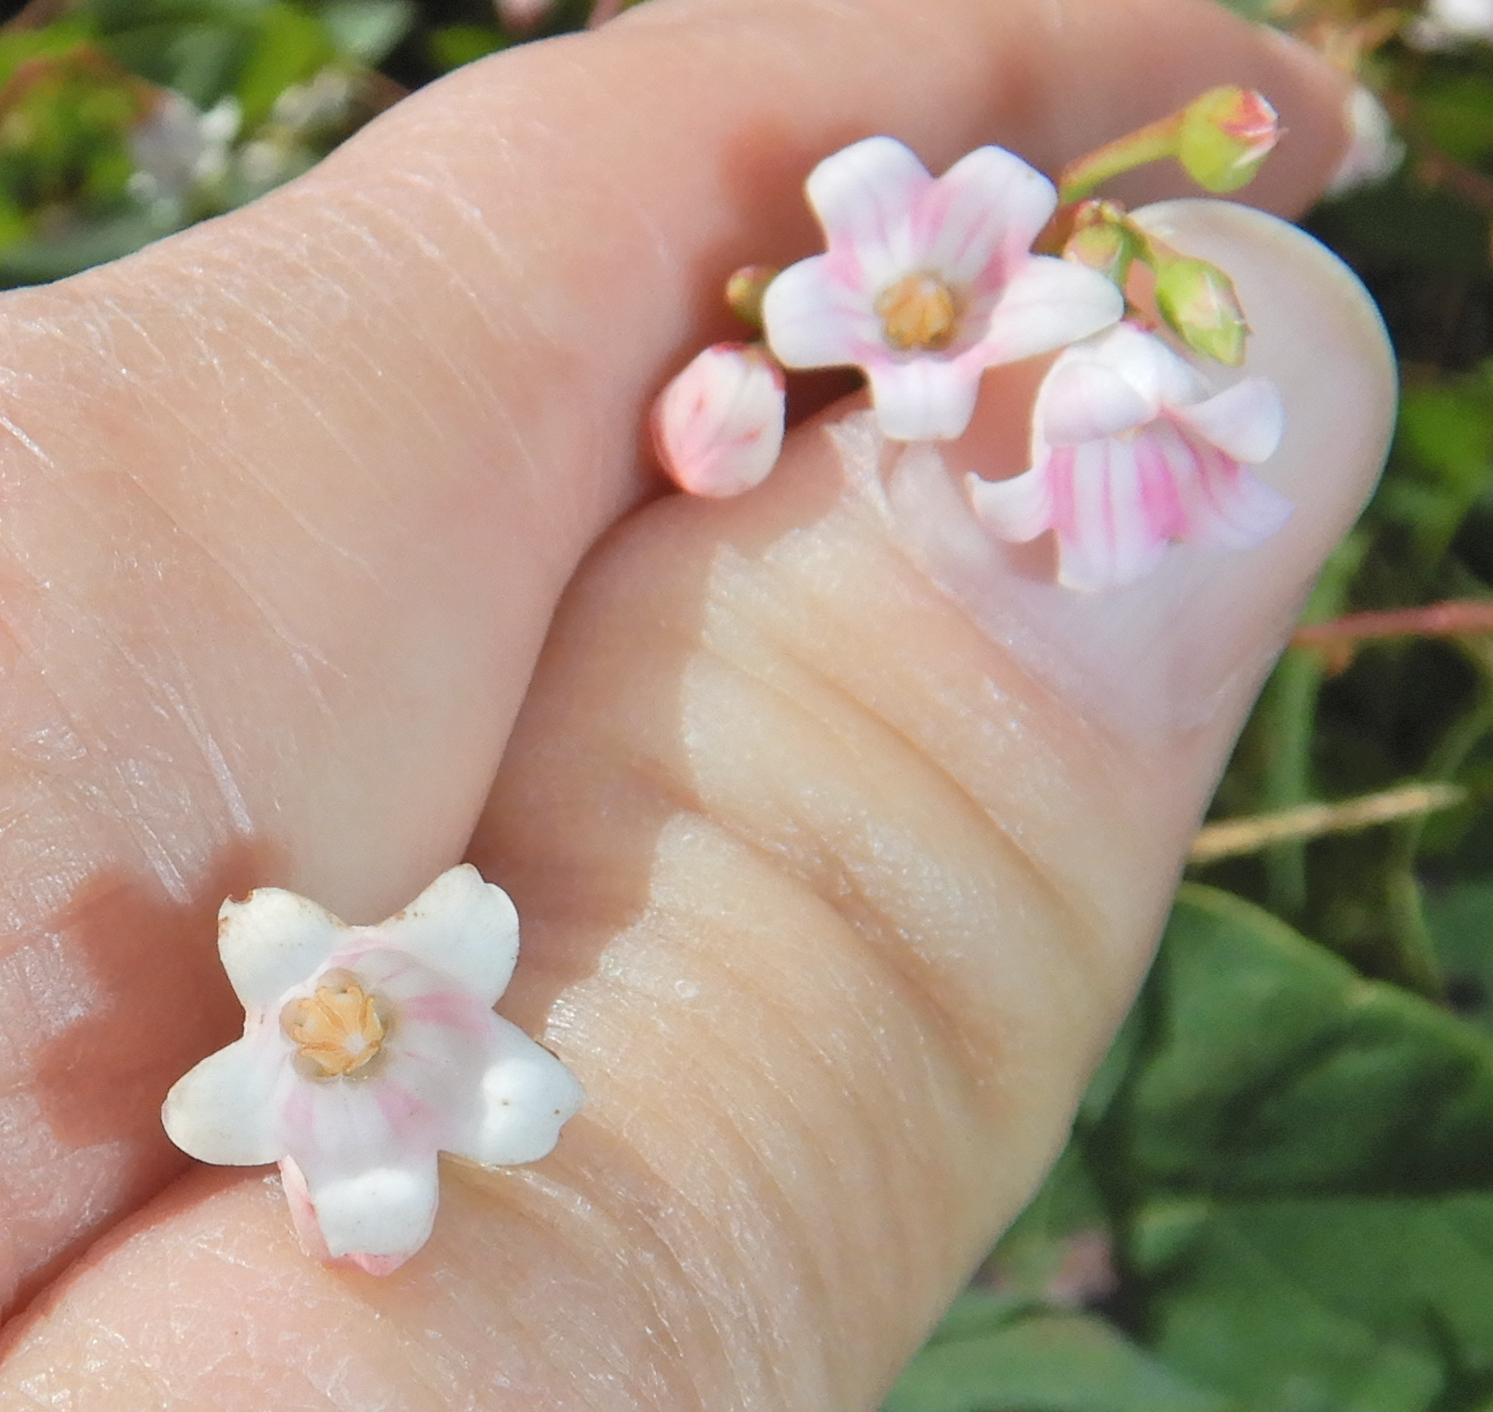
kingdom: Plantae
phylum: Tracheophyta
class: Magnoliopsida
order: Gentianales
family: Apocynaceae
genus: Apocynum
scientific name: Apocynum androsaemifolium
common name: Spreading dogbane
